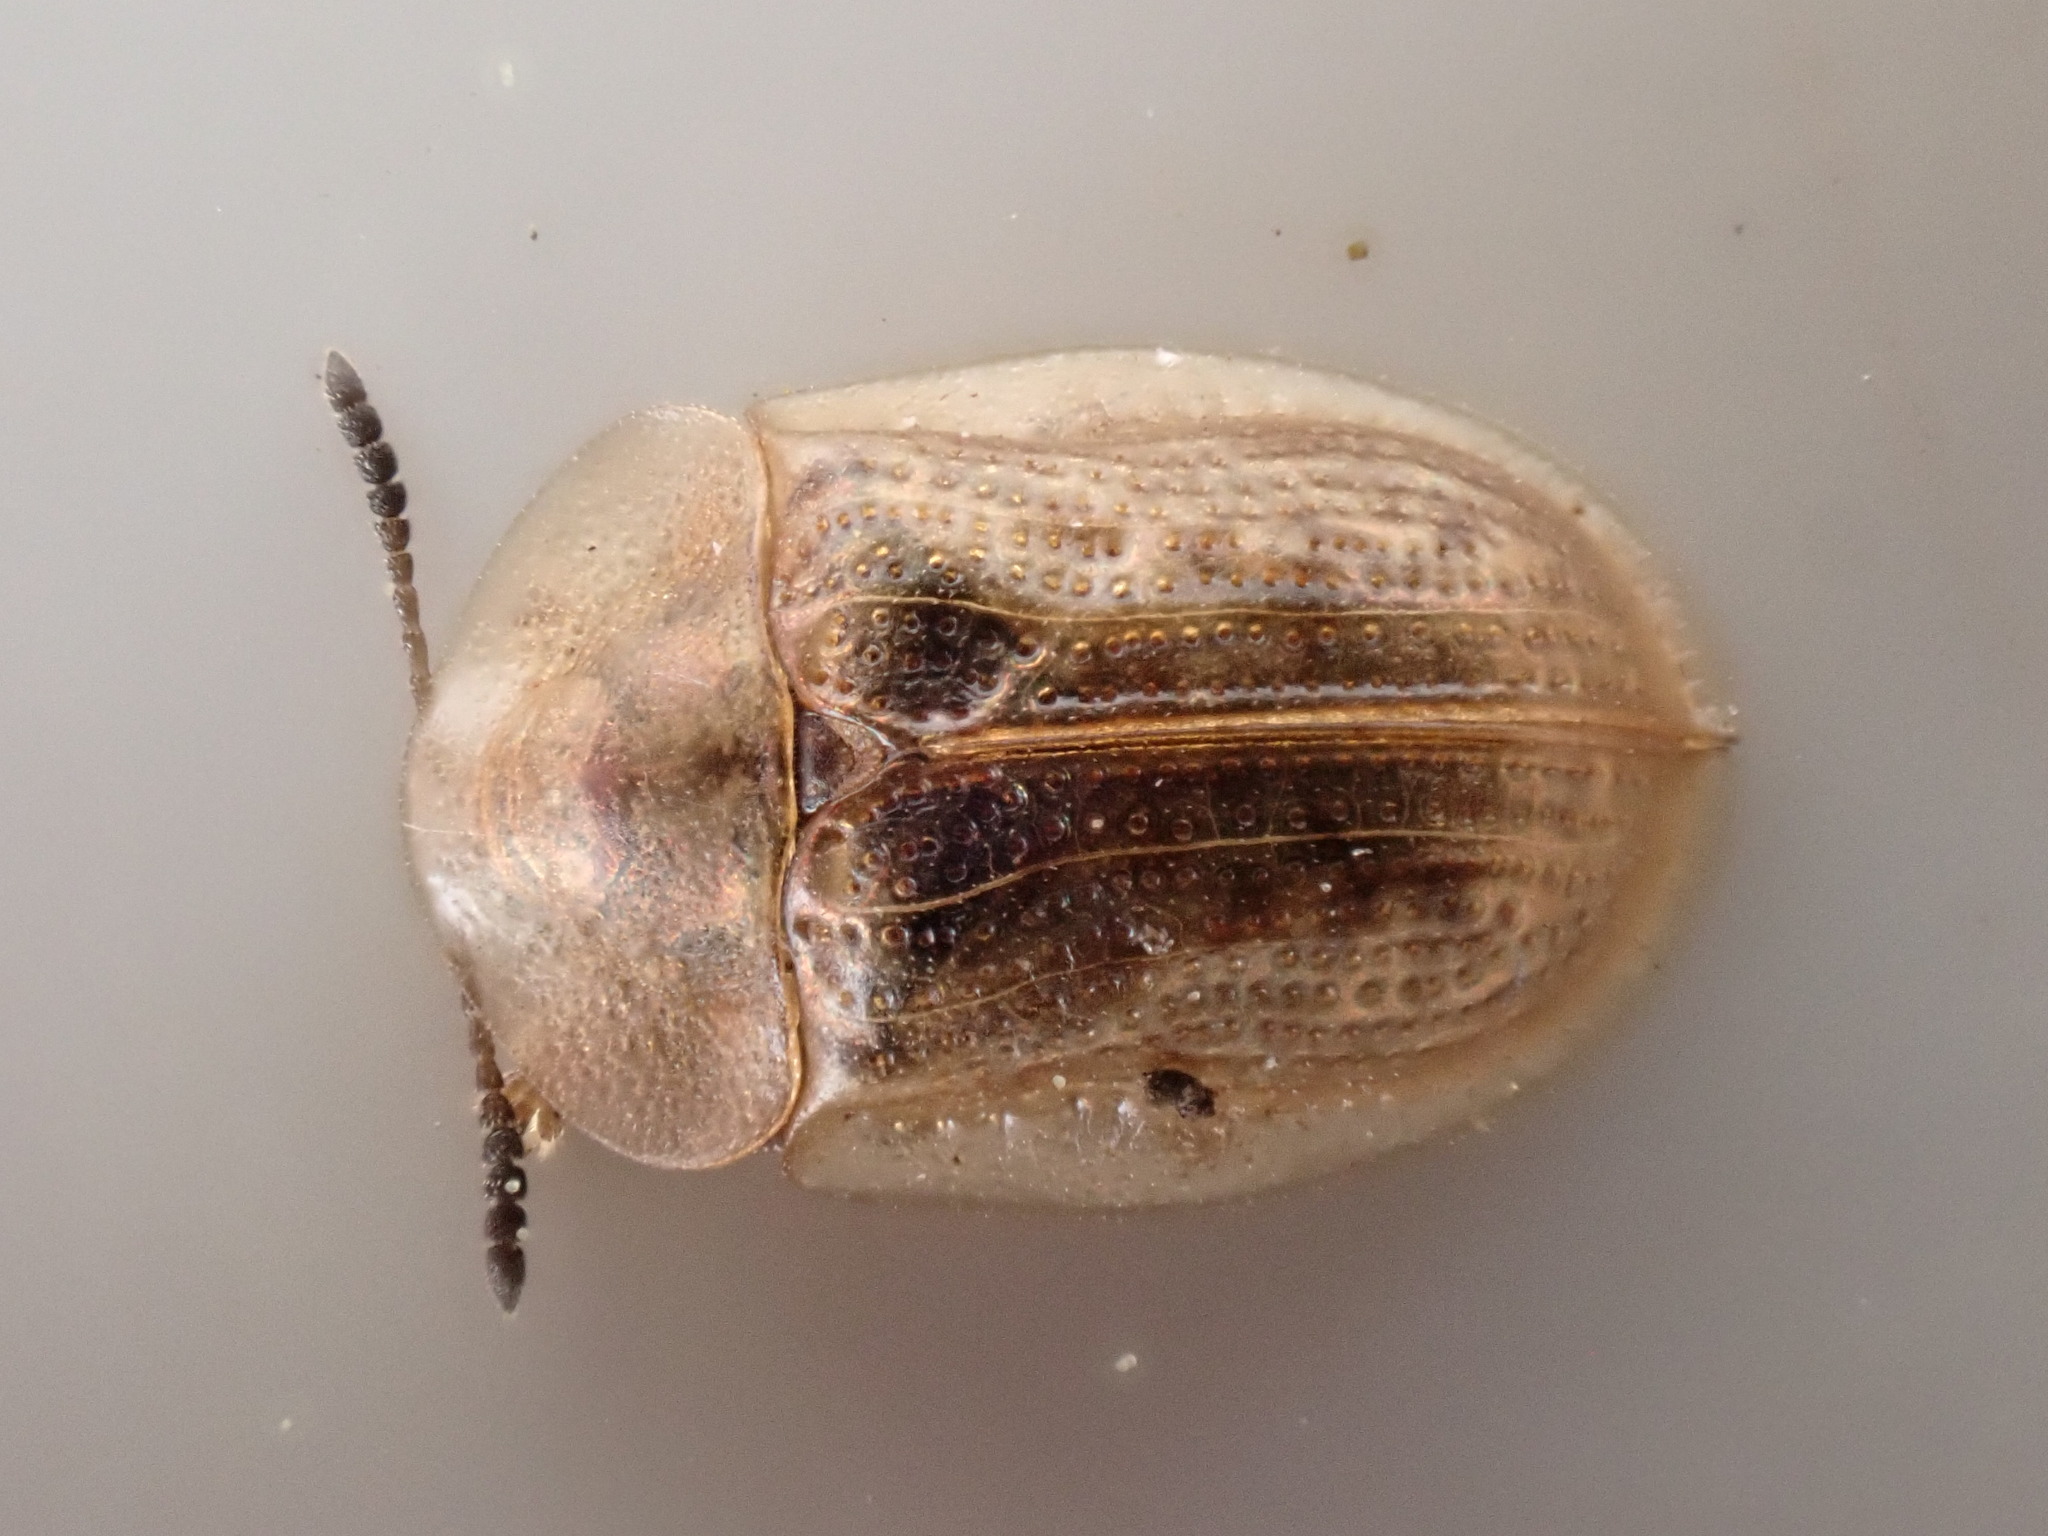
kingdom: Animalia
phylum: Arthropoda
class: Insecta
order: Coleoptera
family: Chrysomelidae
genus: Cassida
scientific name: Cassida flaveola
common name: Pale tortoise beetle
